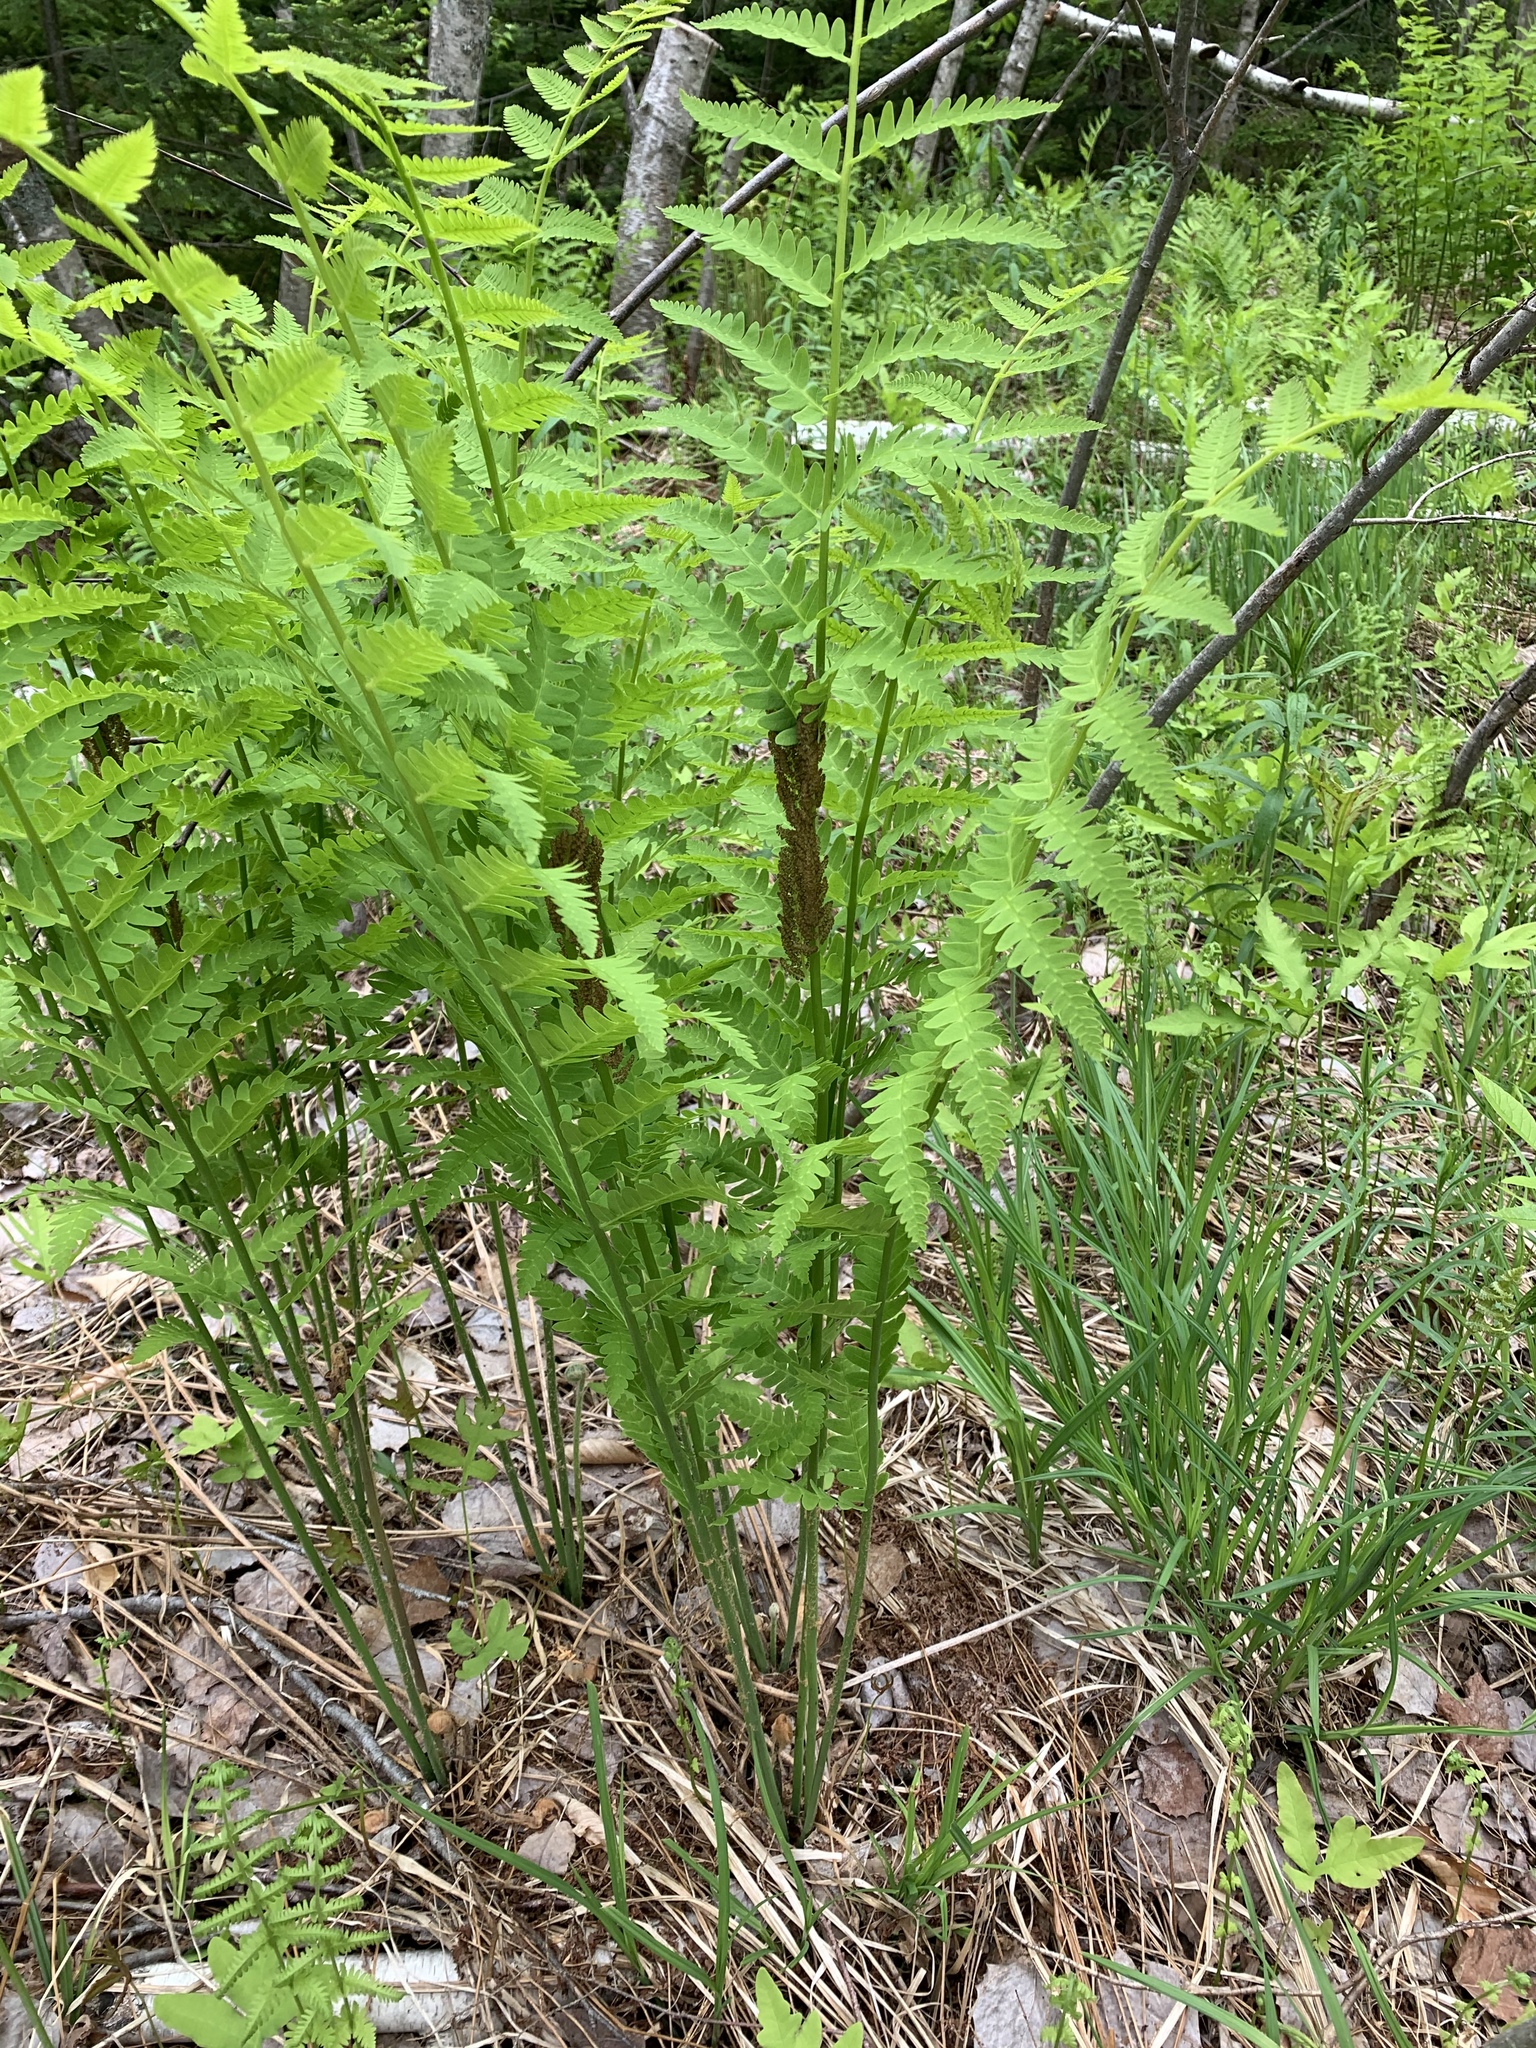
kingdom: Plantae
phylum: Tracheophyta
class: Polypodiopsida
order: Osmundales
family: Osmundaceae
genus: Claytosmunda
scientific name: Claytosmunda claytoniana
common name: Clayton's fern
